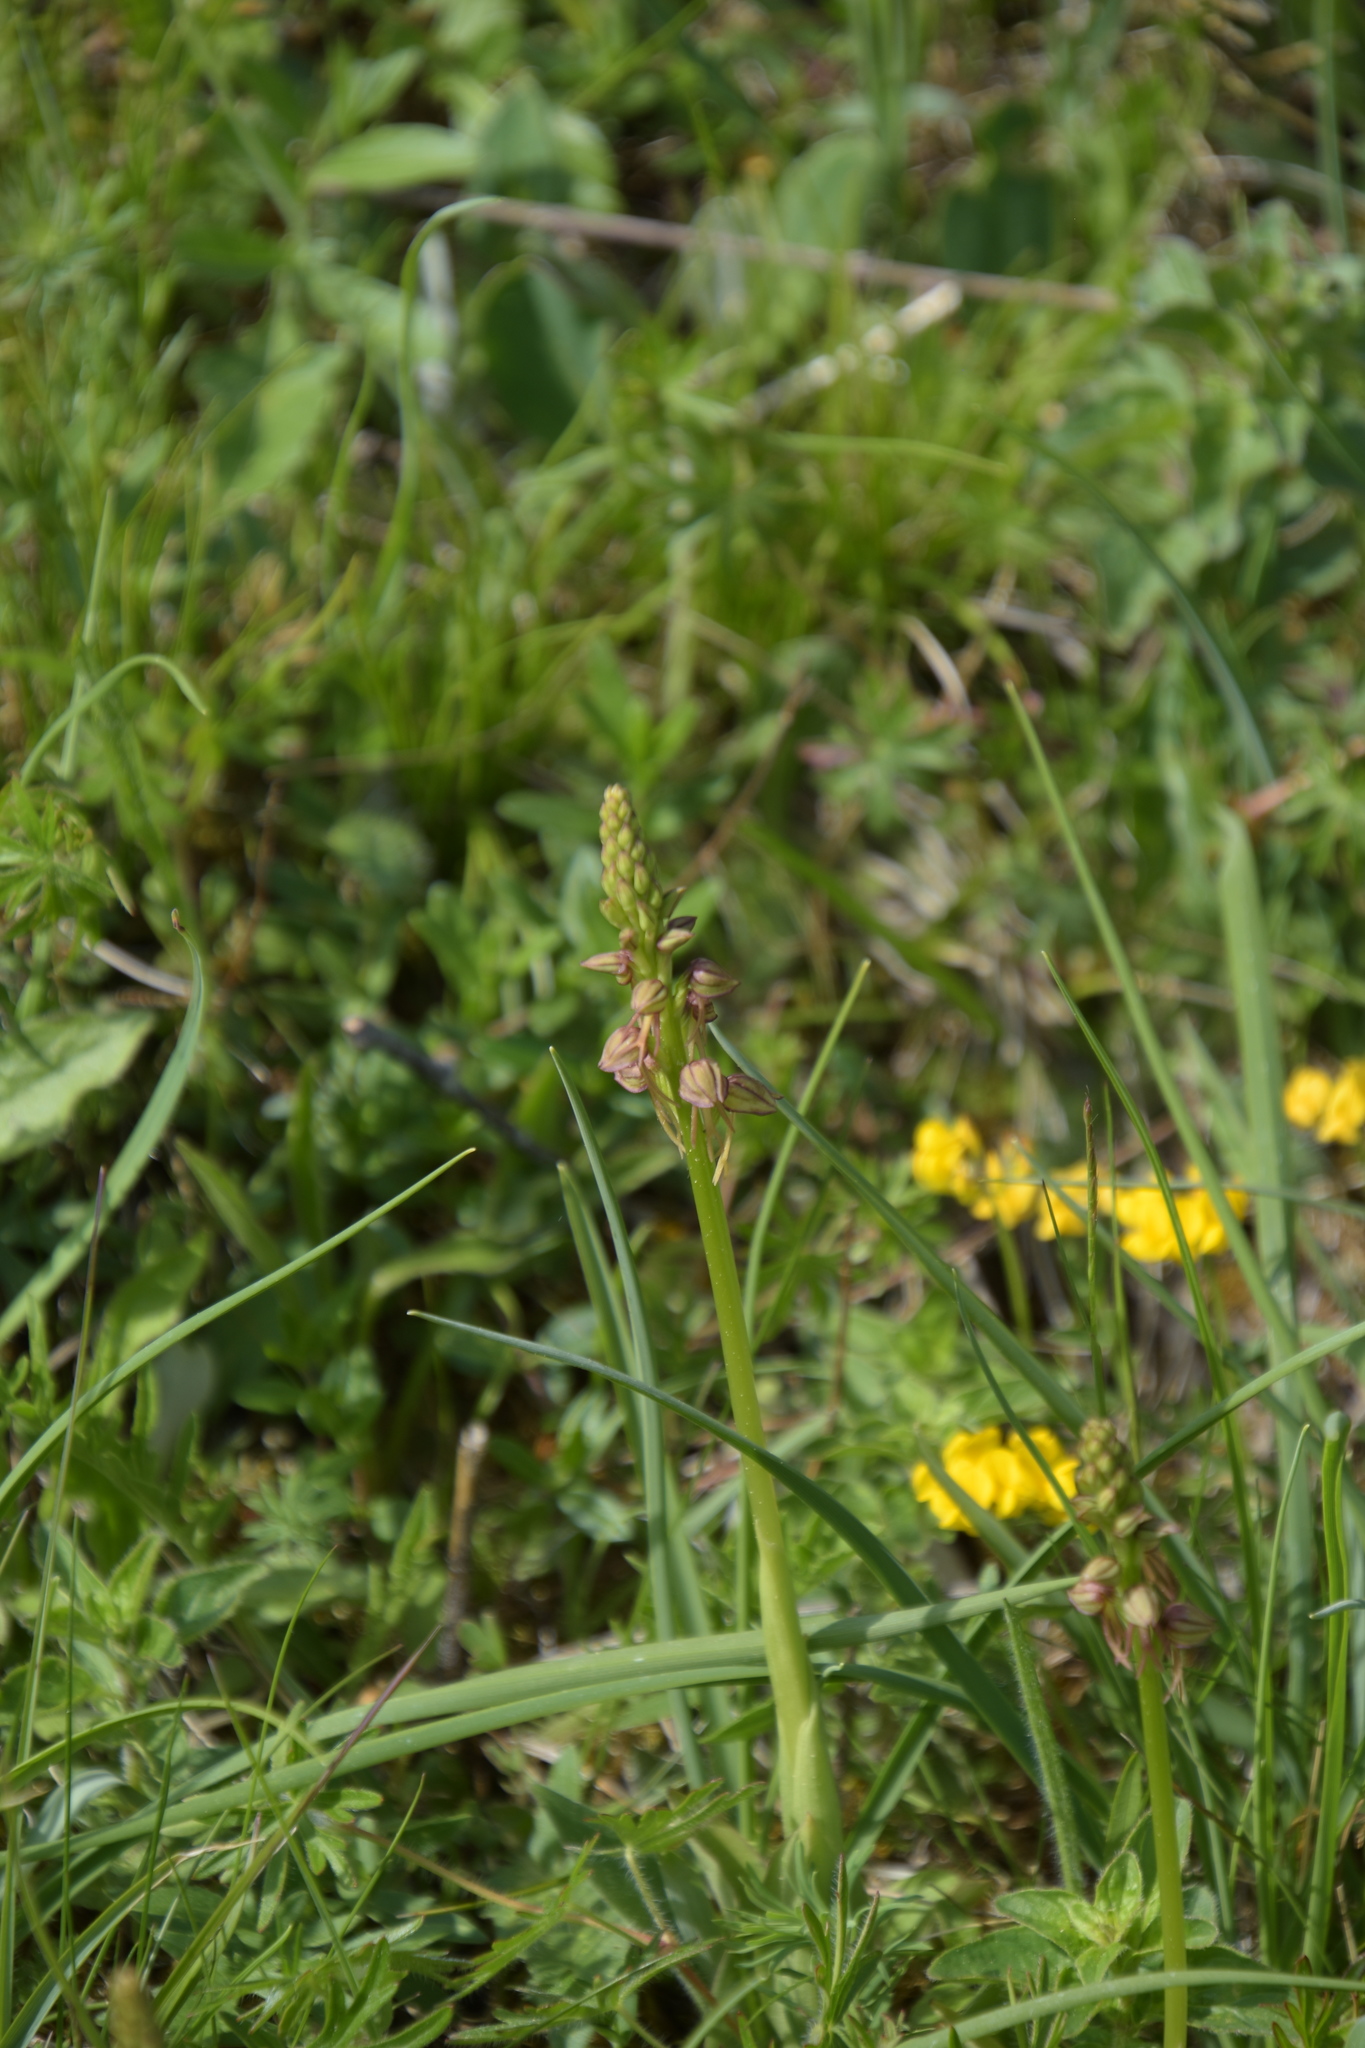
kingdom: Plantae
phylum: Tracheophyta
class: Liliopsida
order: Asparagales
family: Orchidaceae
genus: Orchis
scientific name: Orchis anthropophora
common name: Man orchid
